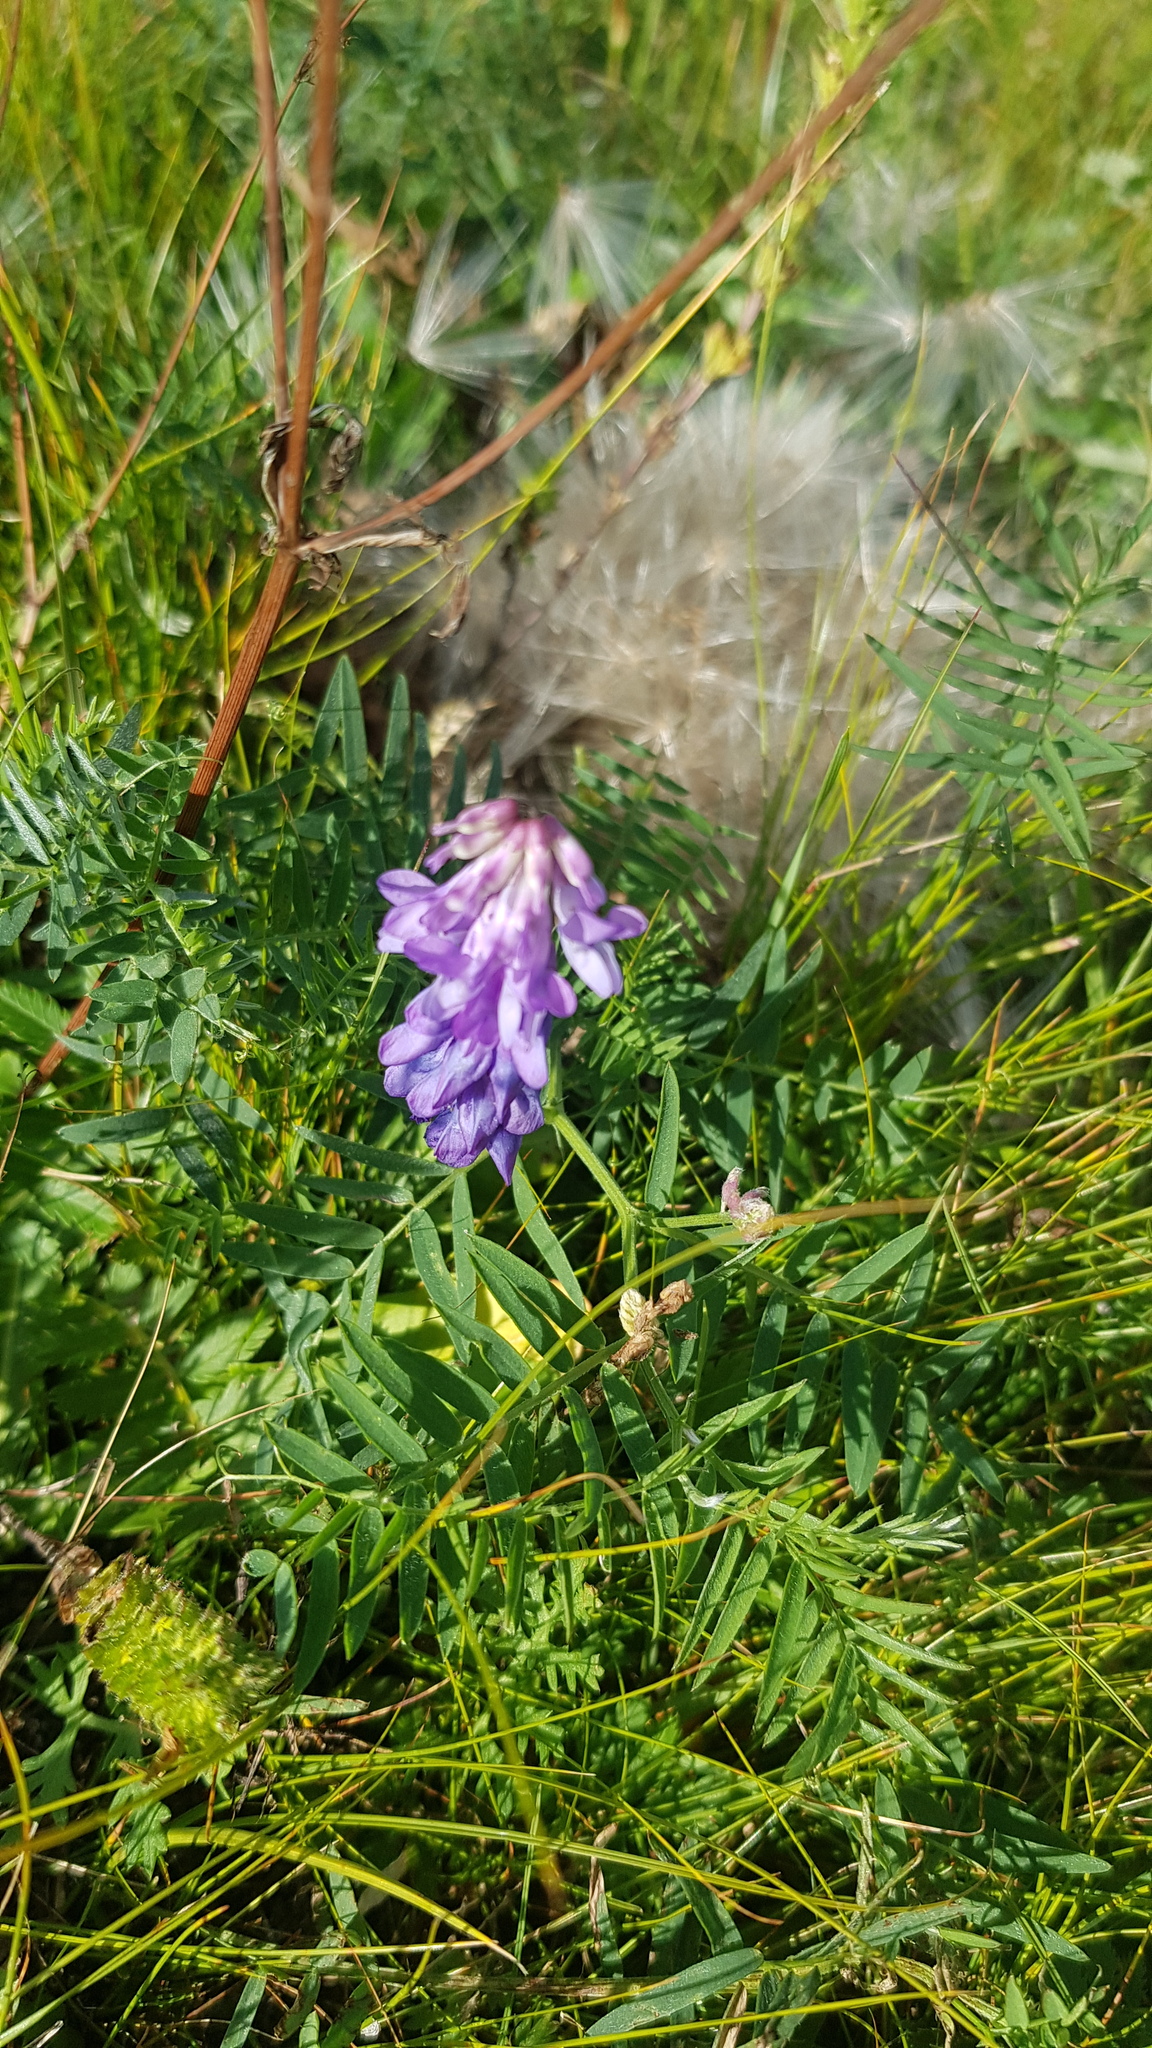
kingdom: Plantae
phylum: Tracheophyta
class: Magnoliopsida
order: Fabales
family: Fabaceae
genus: Vicia
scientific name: Vicia cracca
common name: Bird vetch
